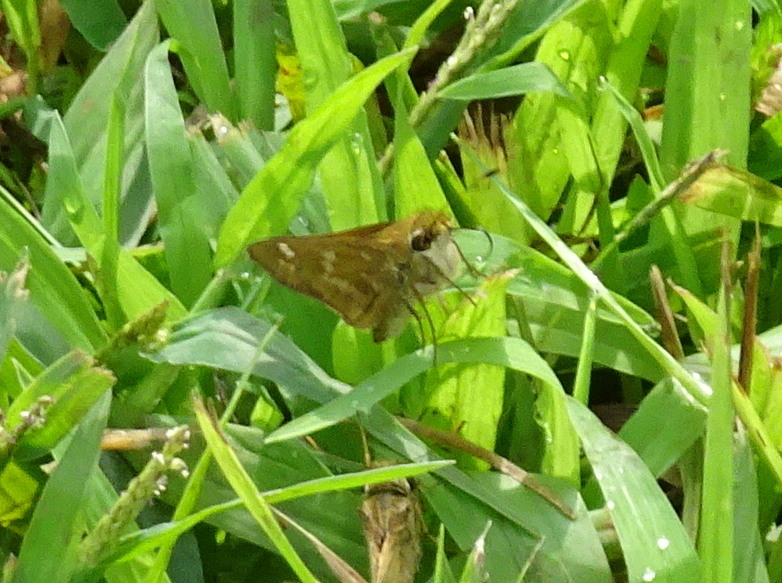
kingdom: Animalia
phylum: Arthropoda
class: Insecta
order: Lepidoptera
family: Hesperiidae
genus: Atalopedes
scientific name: Atalopedes
